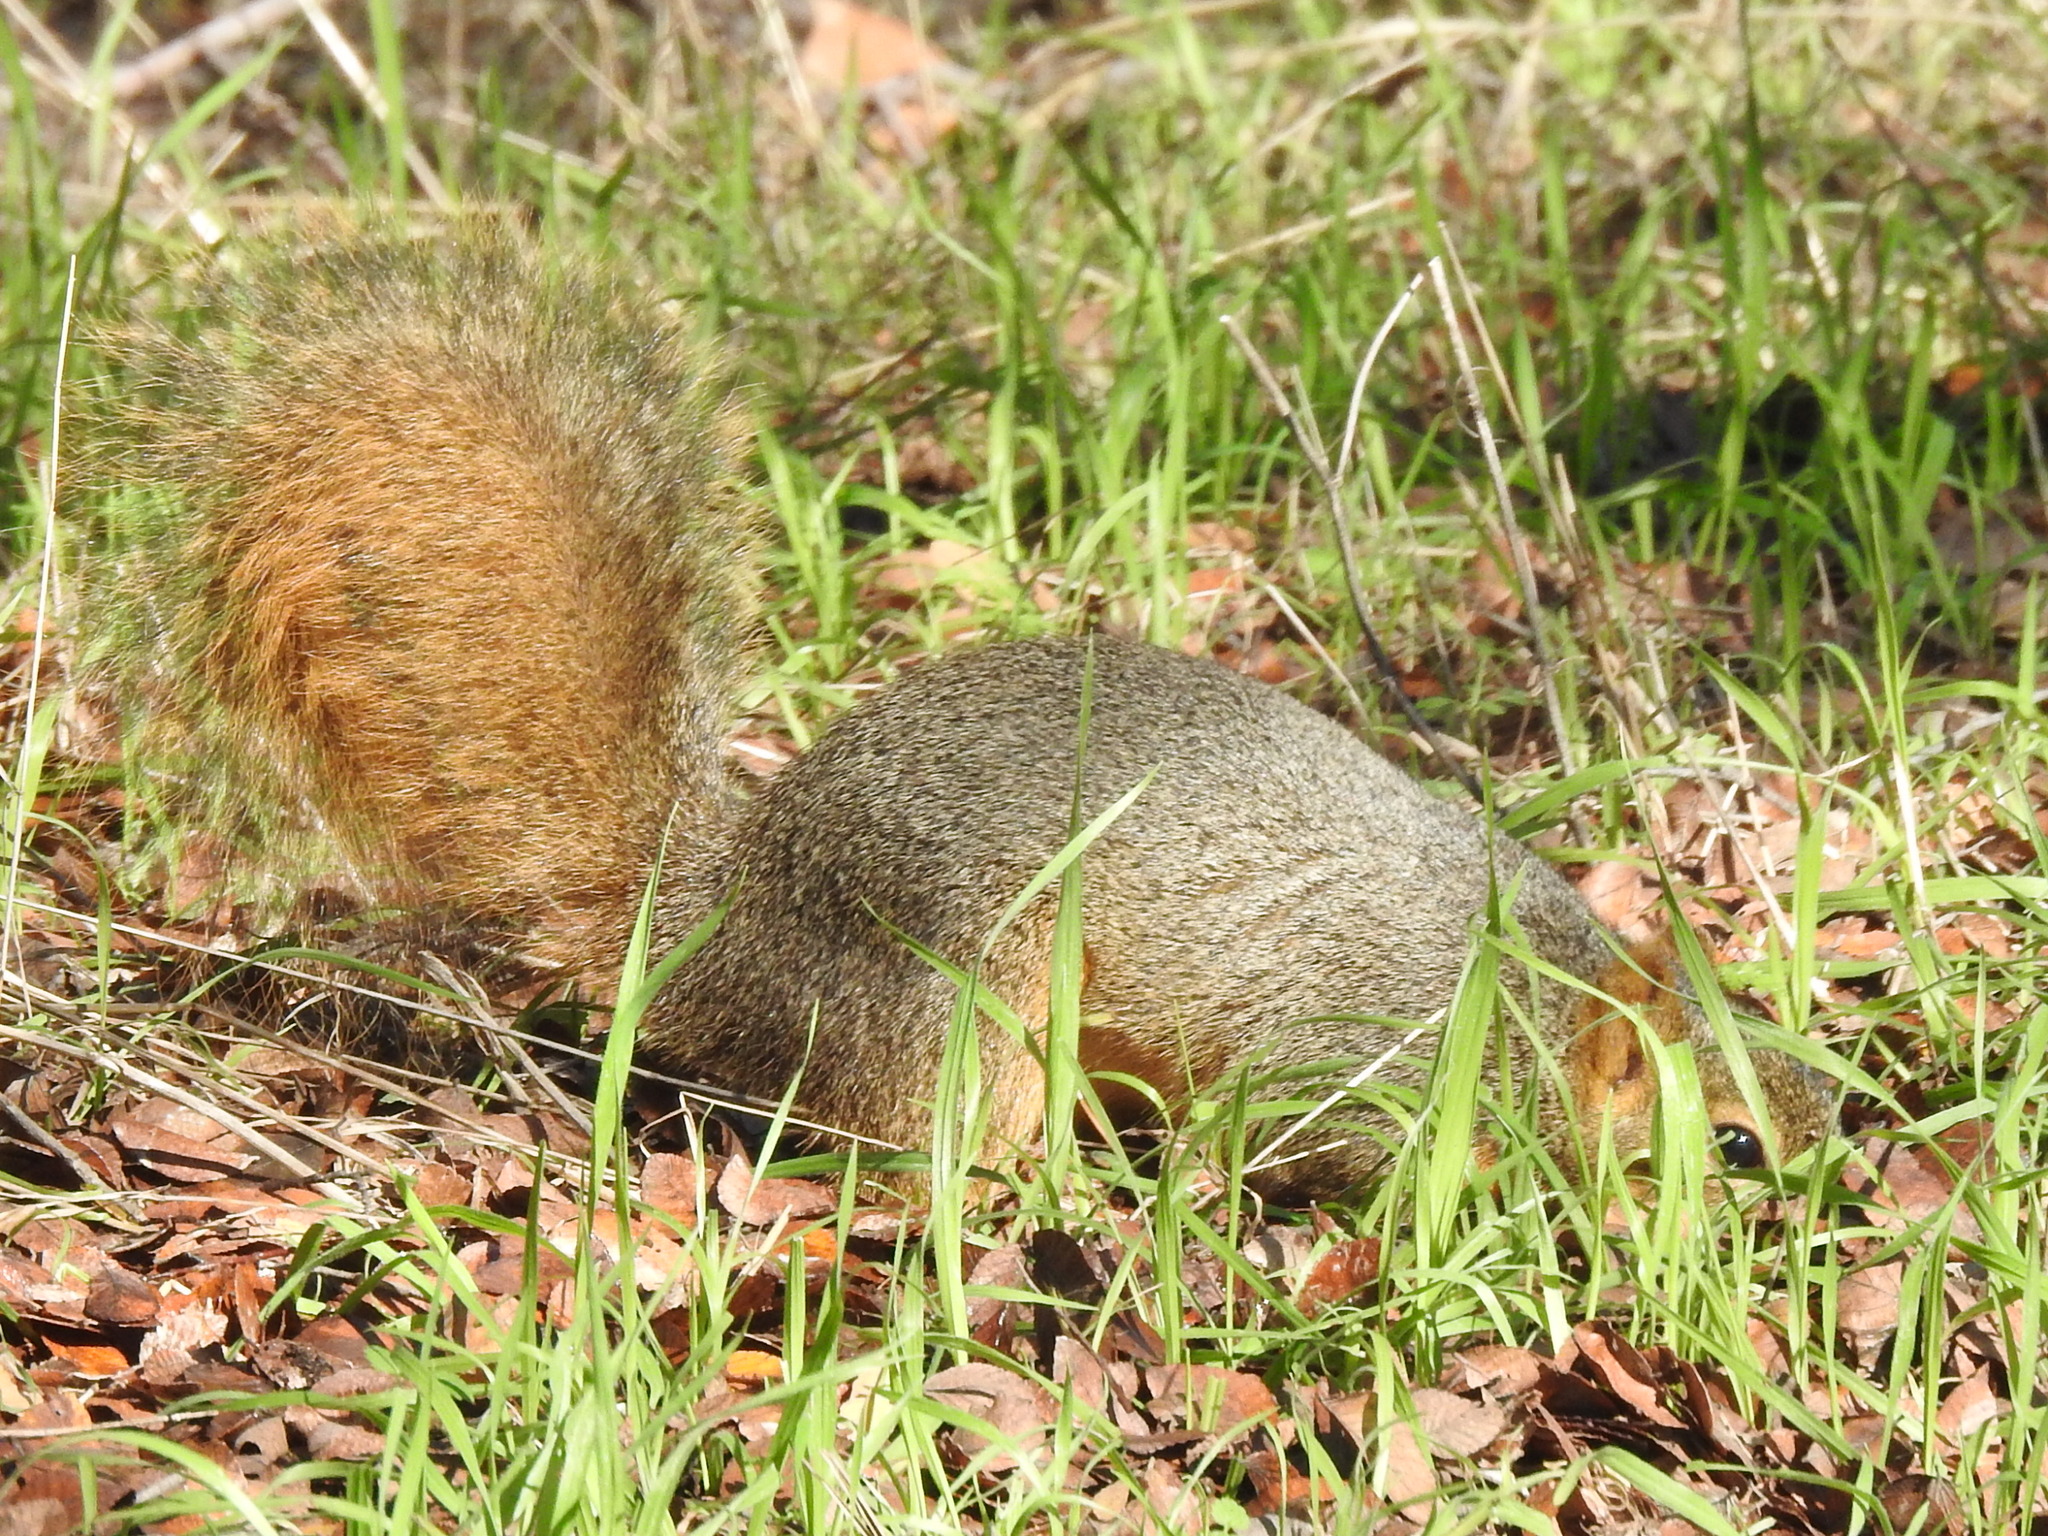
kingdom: Animalia
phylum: Chordata
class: Mammalia
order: Rodentia
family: Sciuridae
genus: Sciurus
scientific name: Sciurus niger
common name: Fox squirrel
